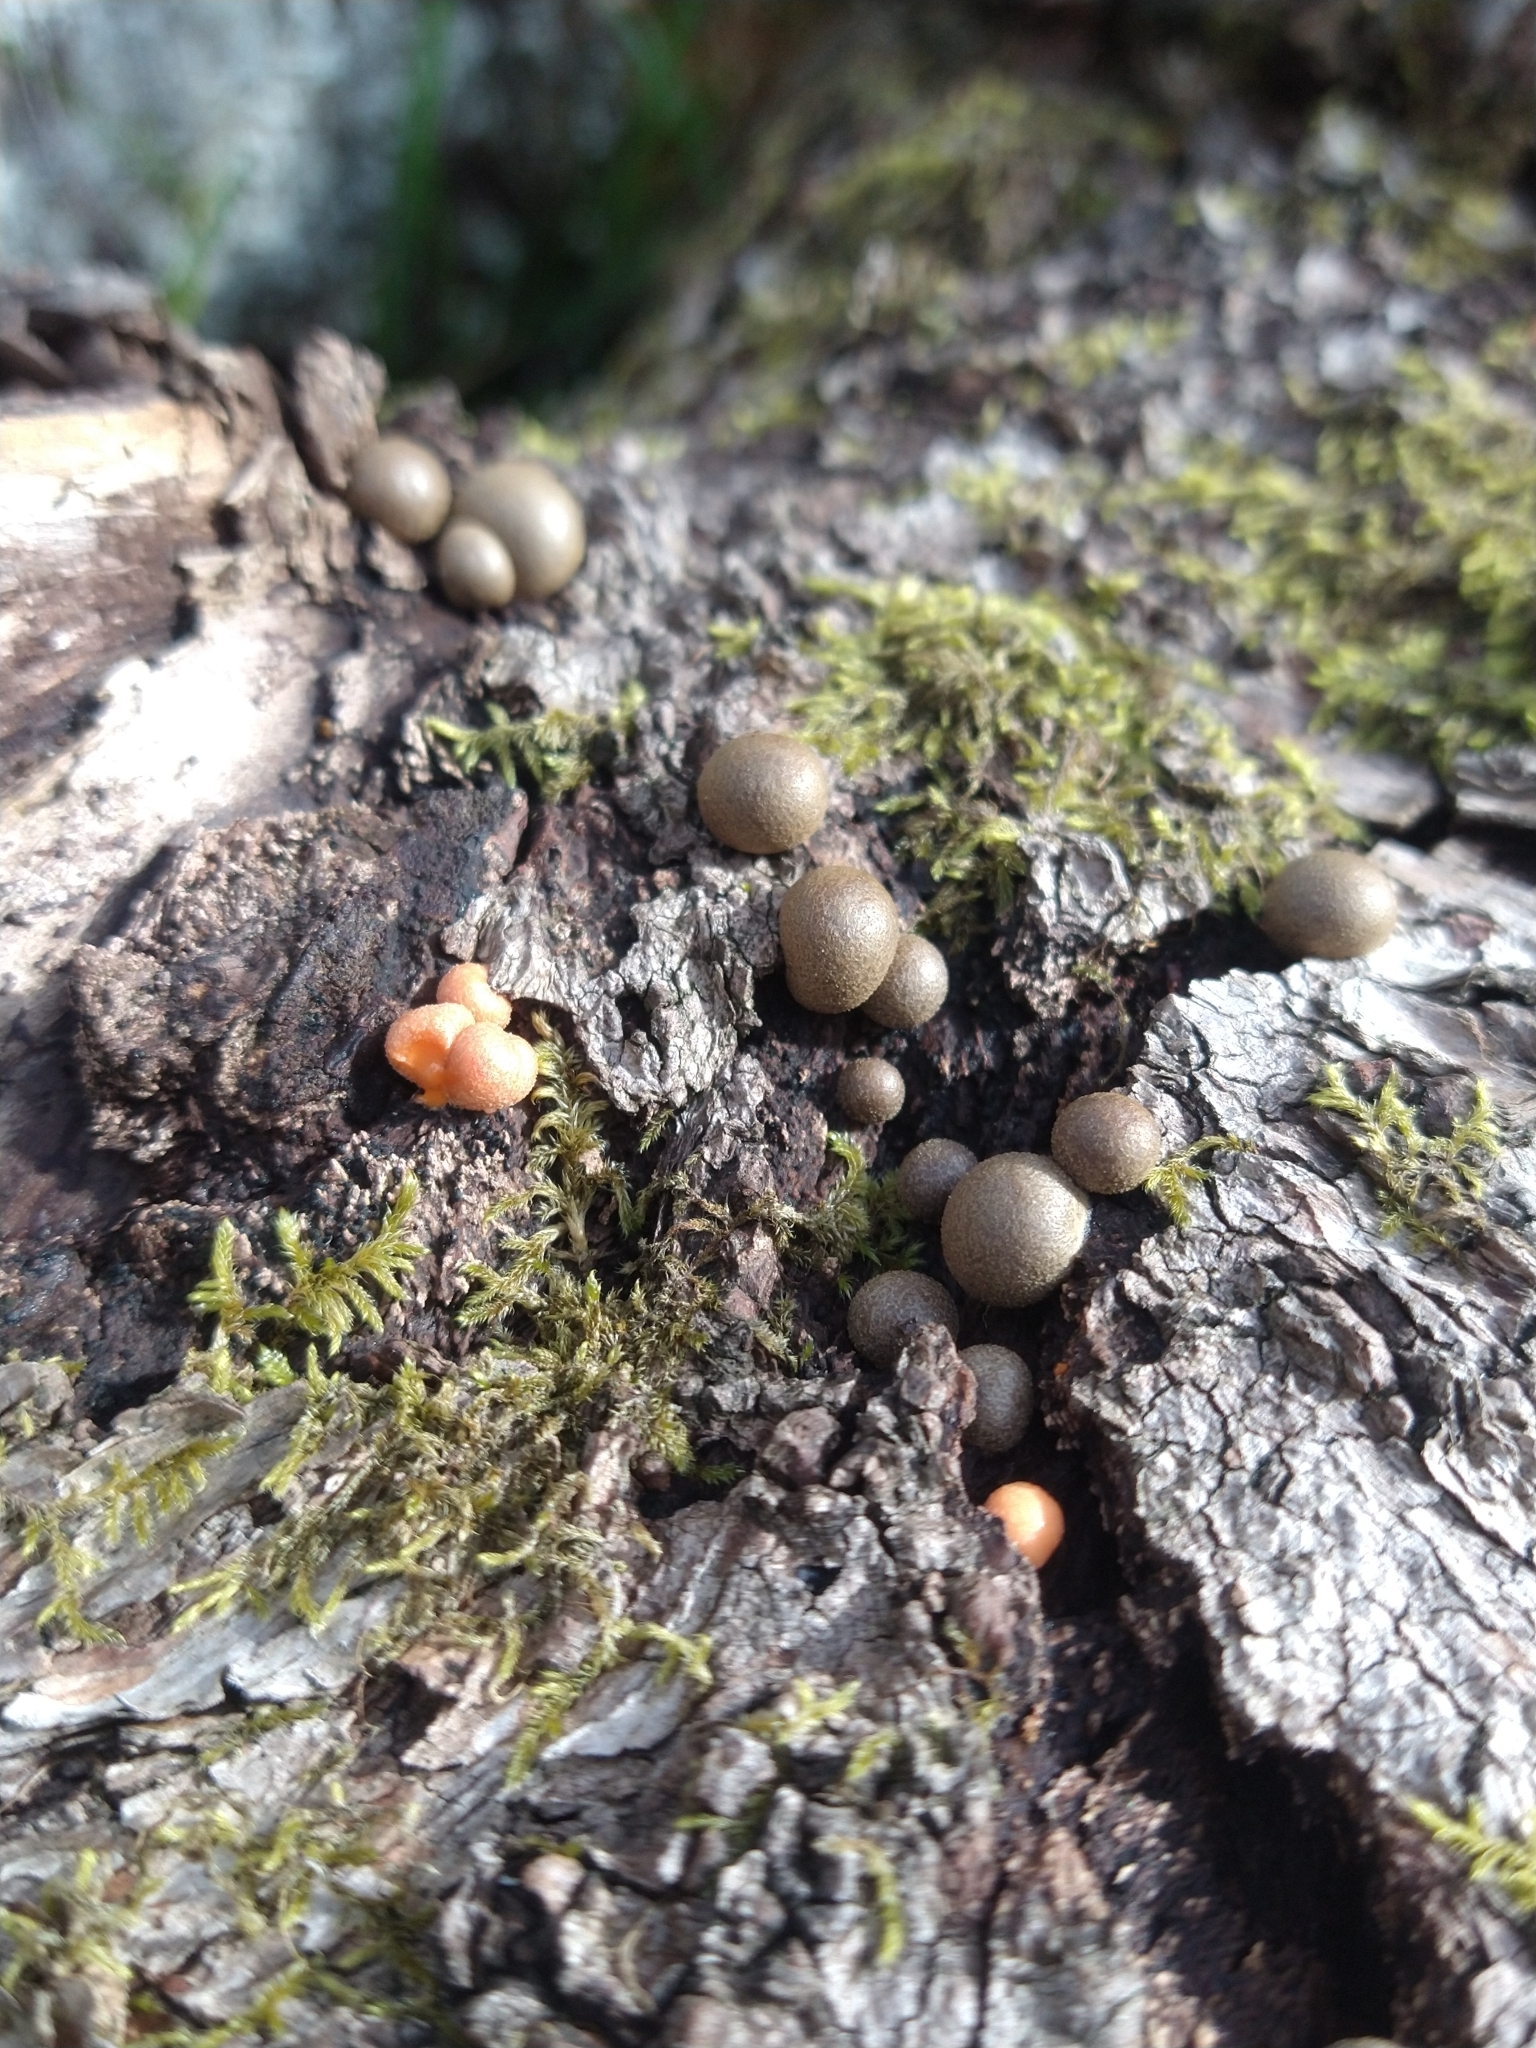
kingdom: Protozoa
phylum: Mycetozoa
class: Myxomycetes
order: Cribrariales
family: Tubiferaceae
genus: Lycogala
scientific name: Lycogala epidendrum
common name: Wolf's milk
